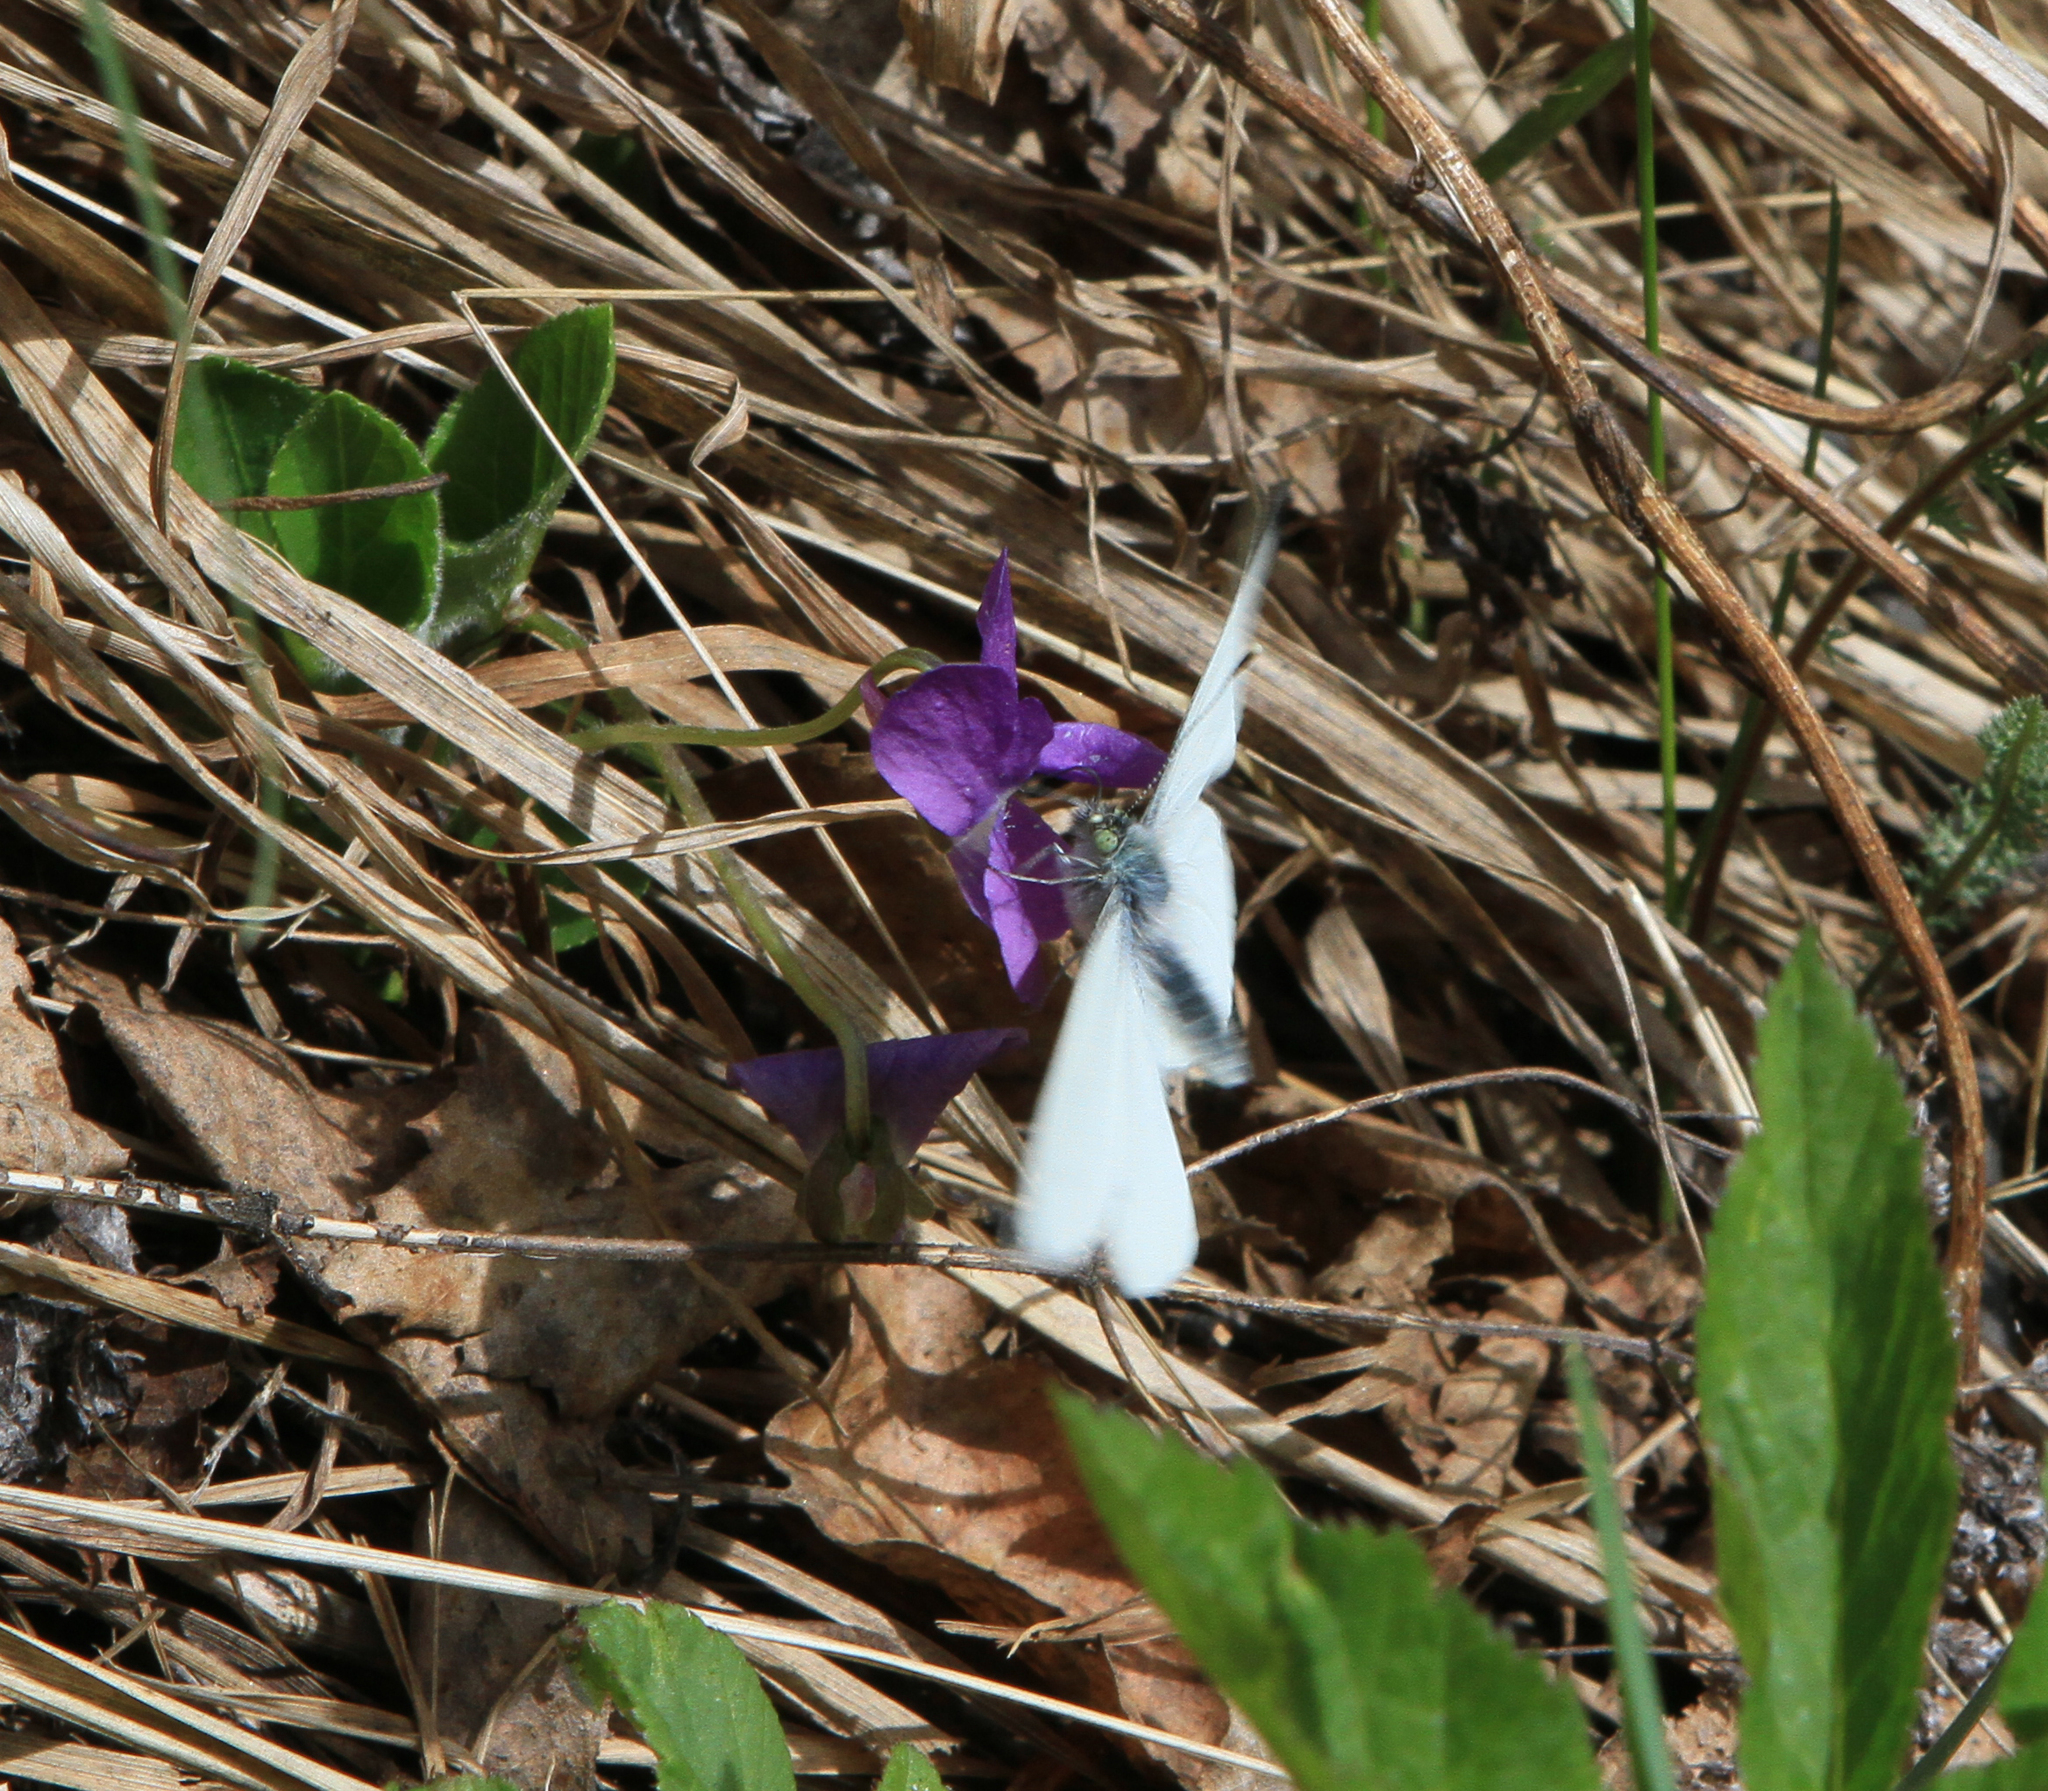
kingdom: Animalia
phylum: Arthropoda
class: Insecta
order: Lepidoptera
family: Pieridae
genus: Pieris
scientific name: Pieris napi
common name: Green-veined white
